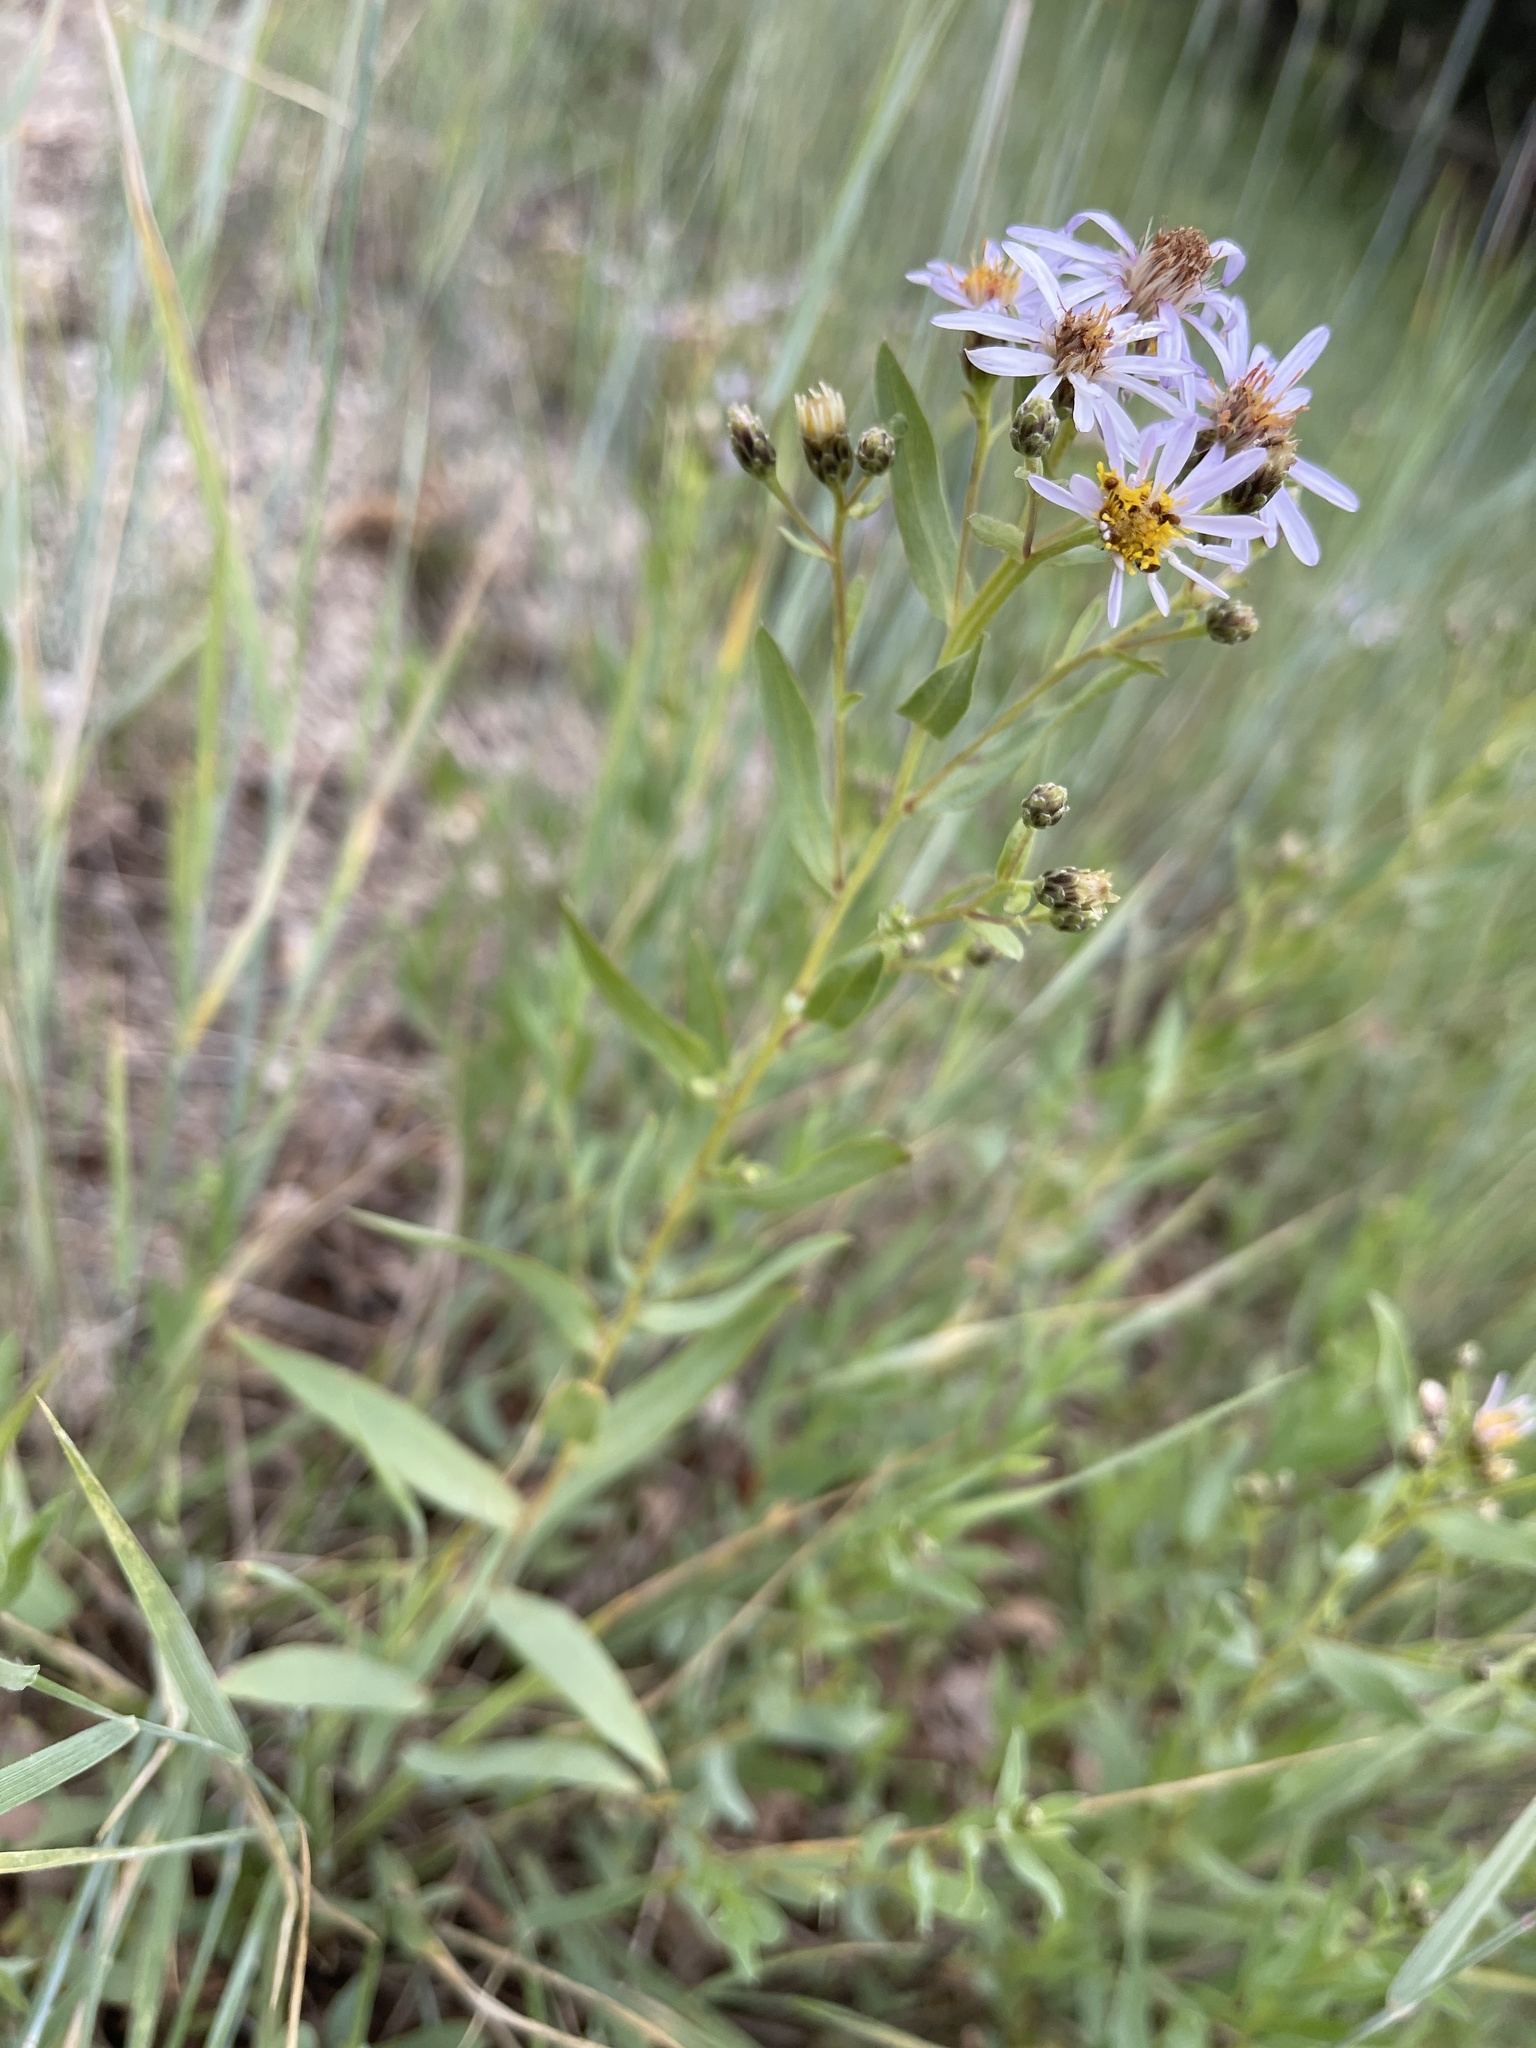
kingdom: Plantae
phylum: Tracheophyta
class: Magnoliopsida
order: Asterales
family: Asteraceae
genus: Eurybia
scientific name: Eurybia glauca
